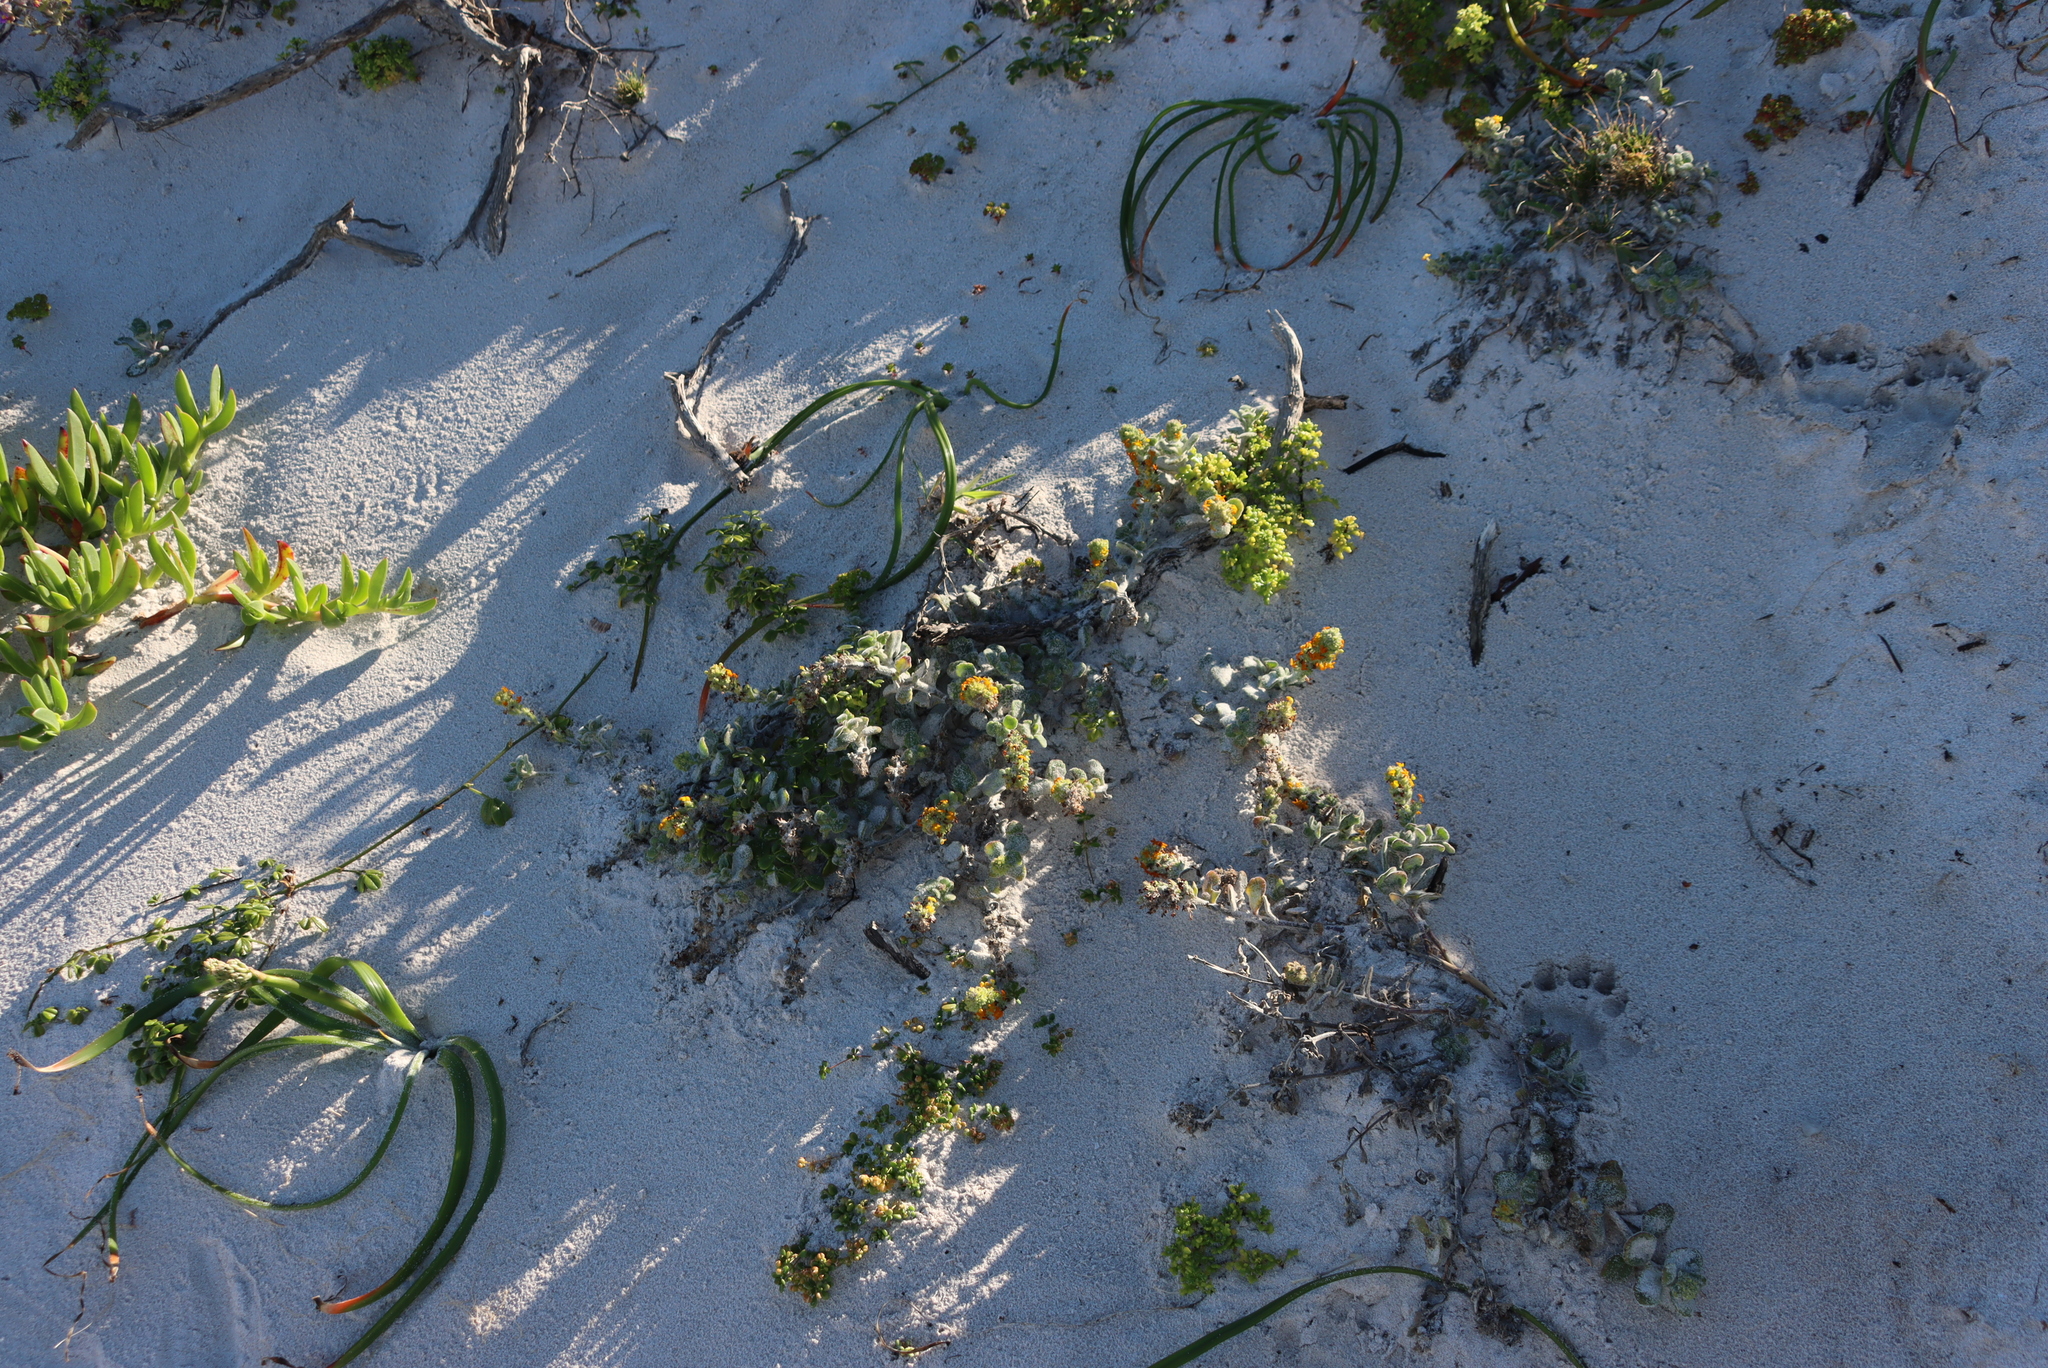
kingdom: Plantae
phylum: Tracheophyta
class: Magnoliopsida
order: Lamiales
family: Scrophulariaceae
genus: Manulea
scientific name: Manulea tomentosa
